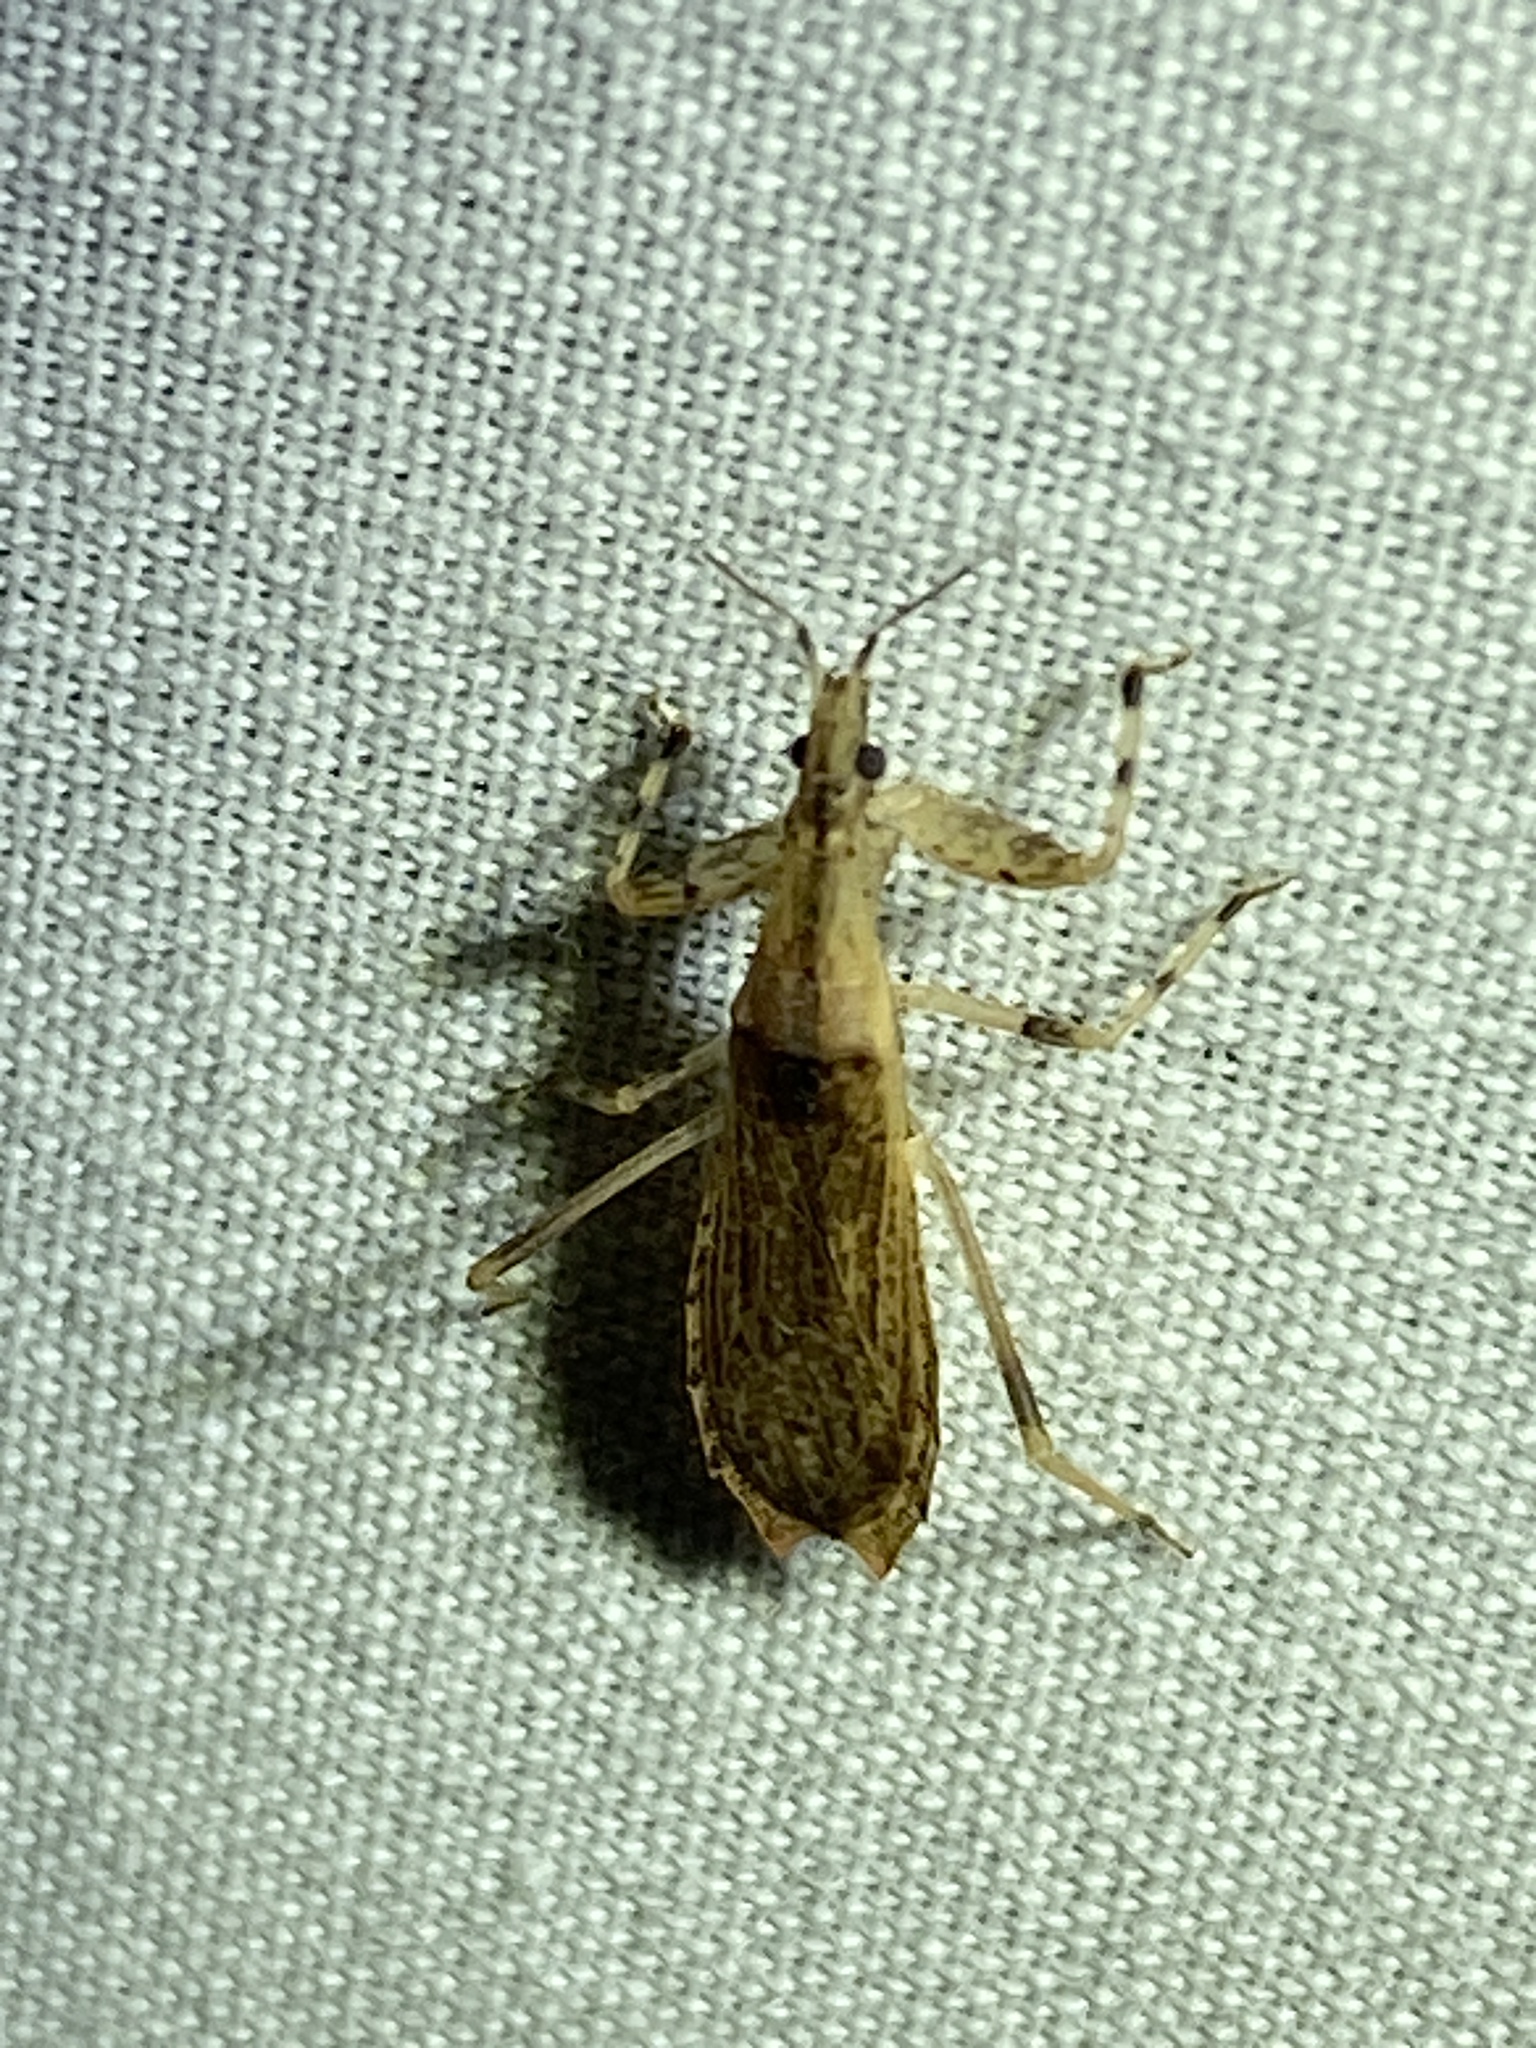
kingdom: Animalia
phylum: Arthropoda
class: Insecta
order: Hemiptera
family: Reduviidae
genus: Ctenotrachelus
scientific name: Ctenotrachelus shermani
